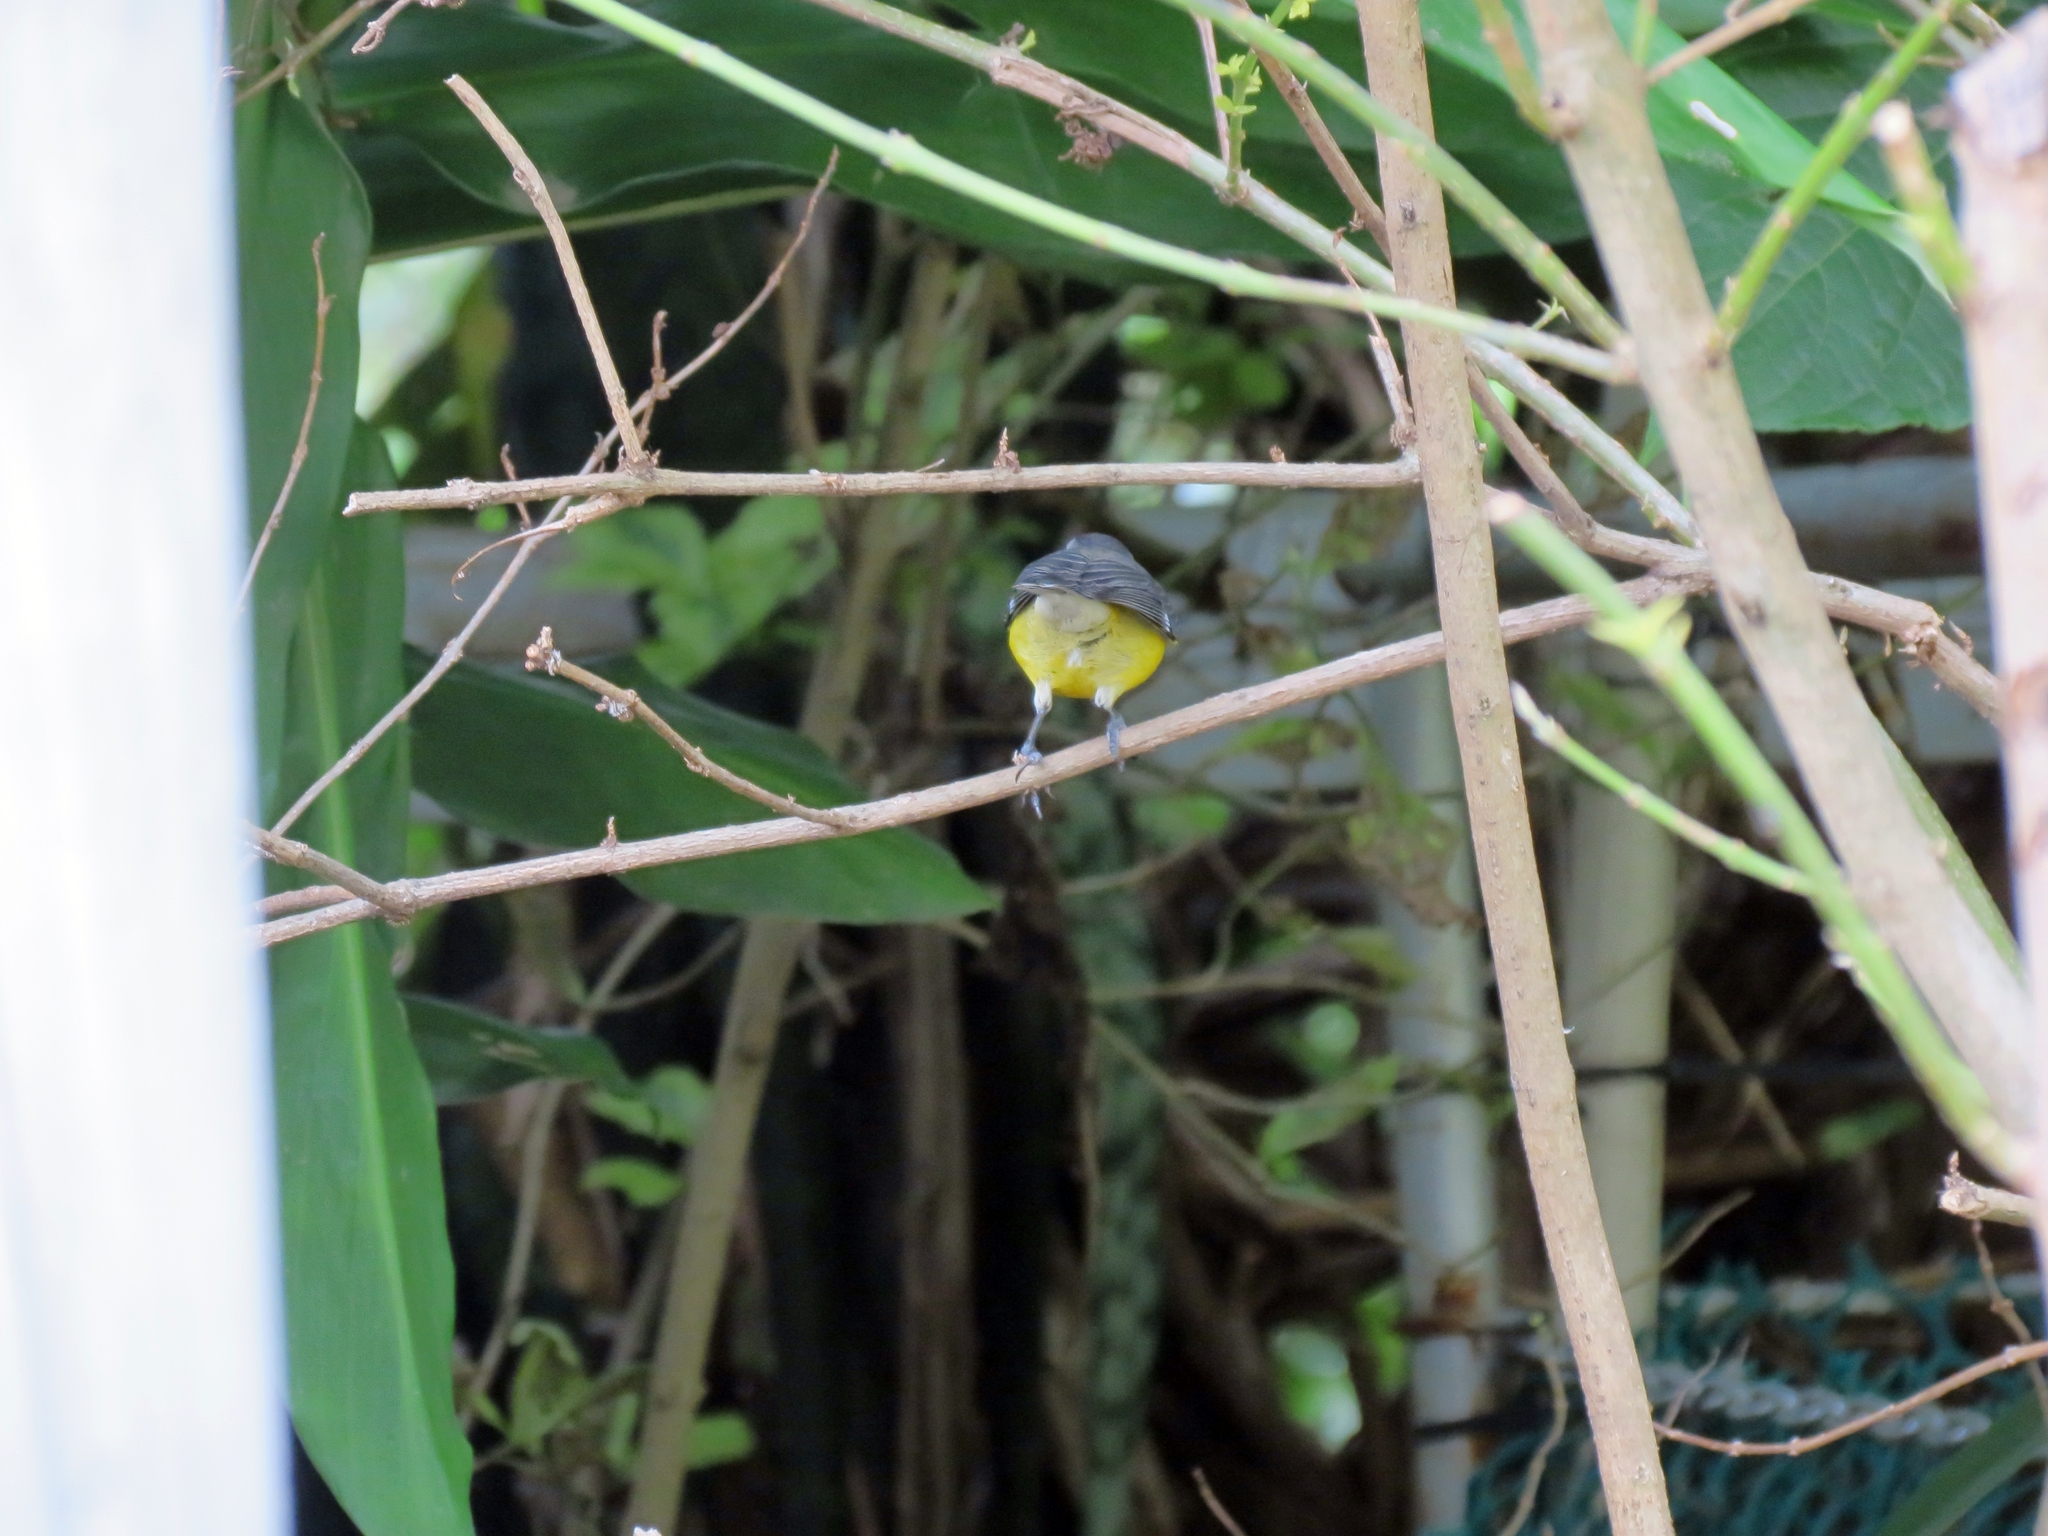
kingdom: Animalia
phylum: Chordata
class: Aves
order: Passeriformes
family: Thraupidae
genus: Coereba
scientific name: Coereba flaveola
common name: Bananaquit
